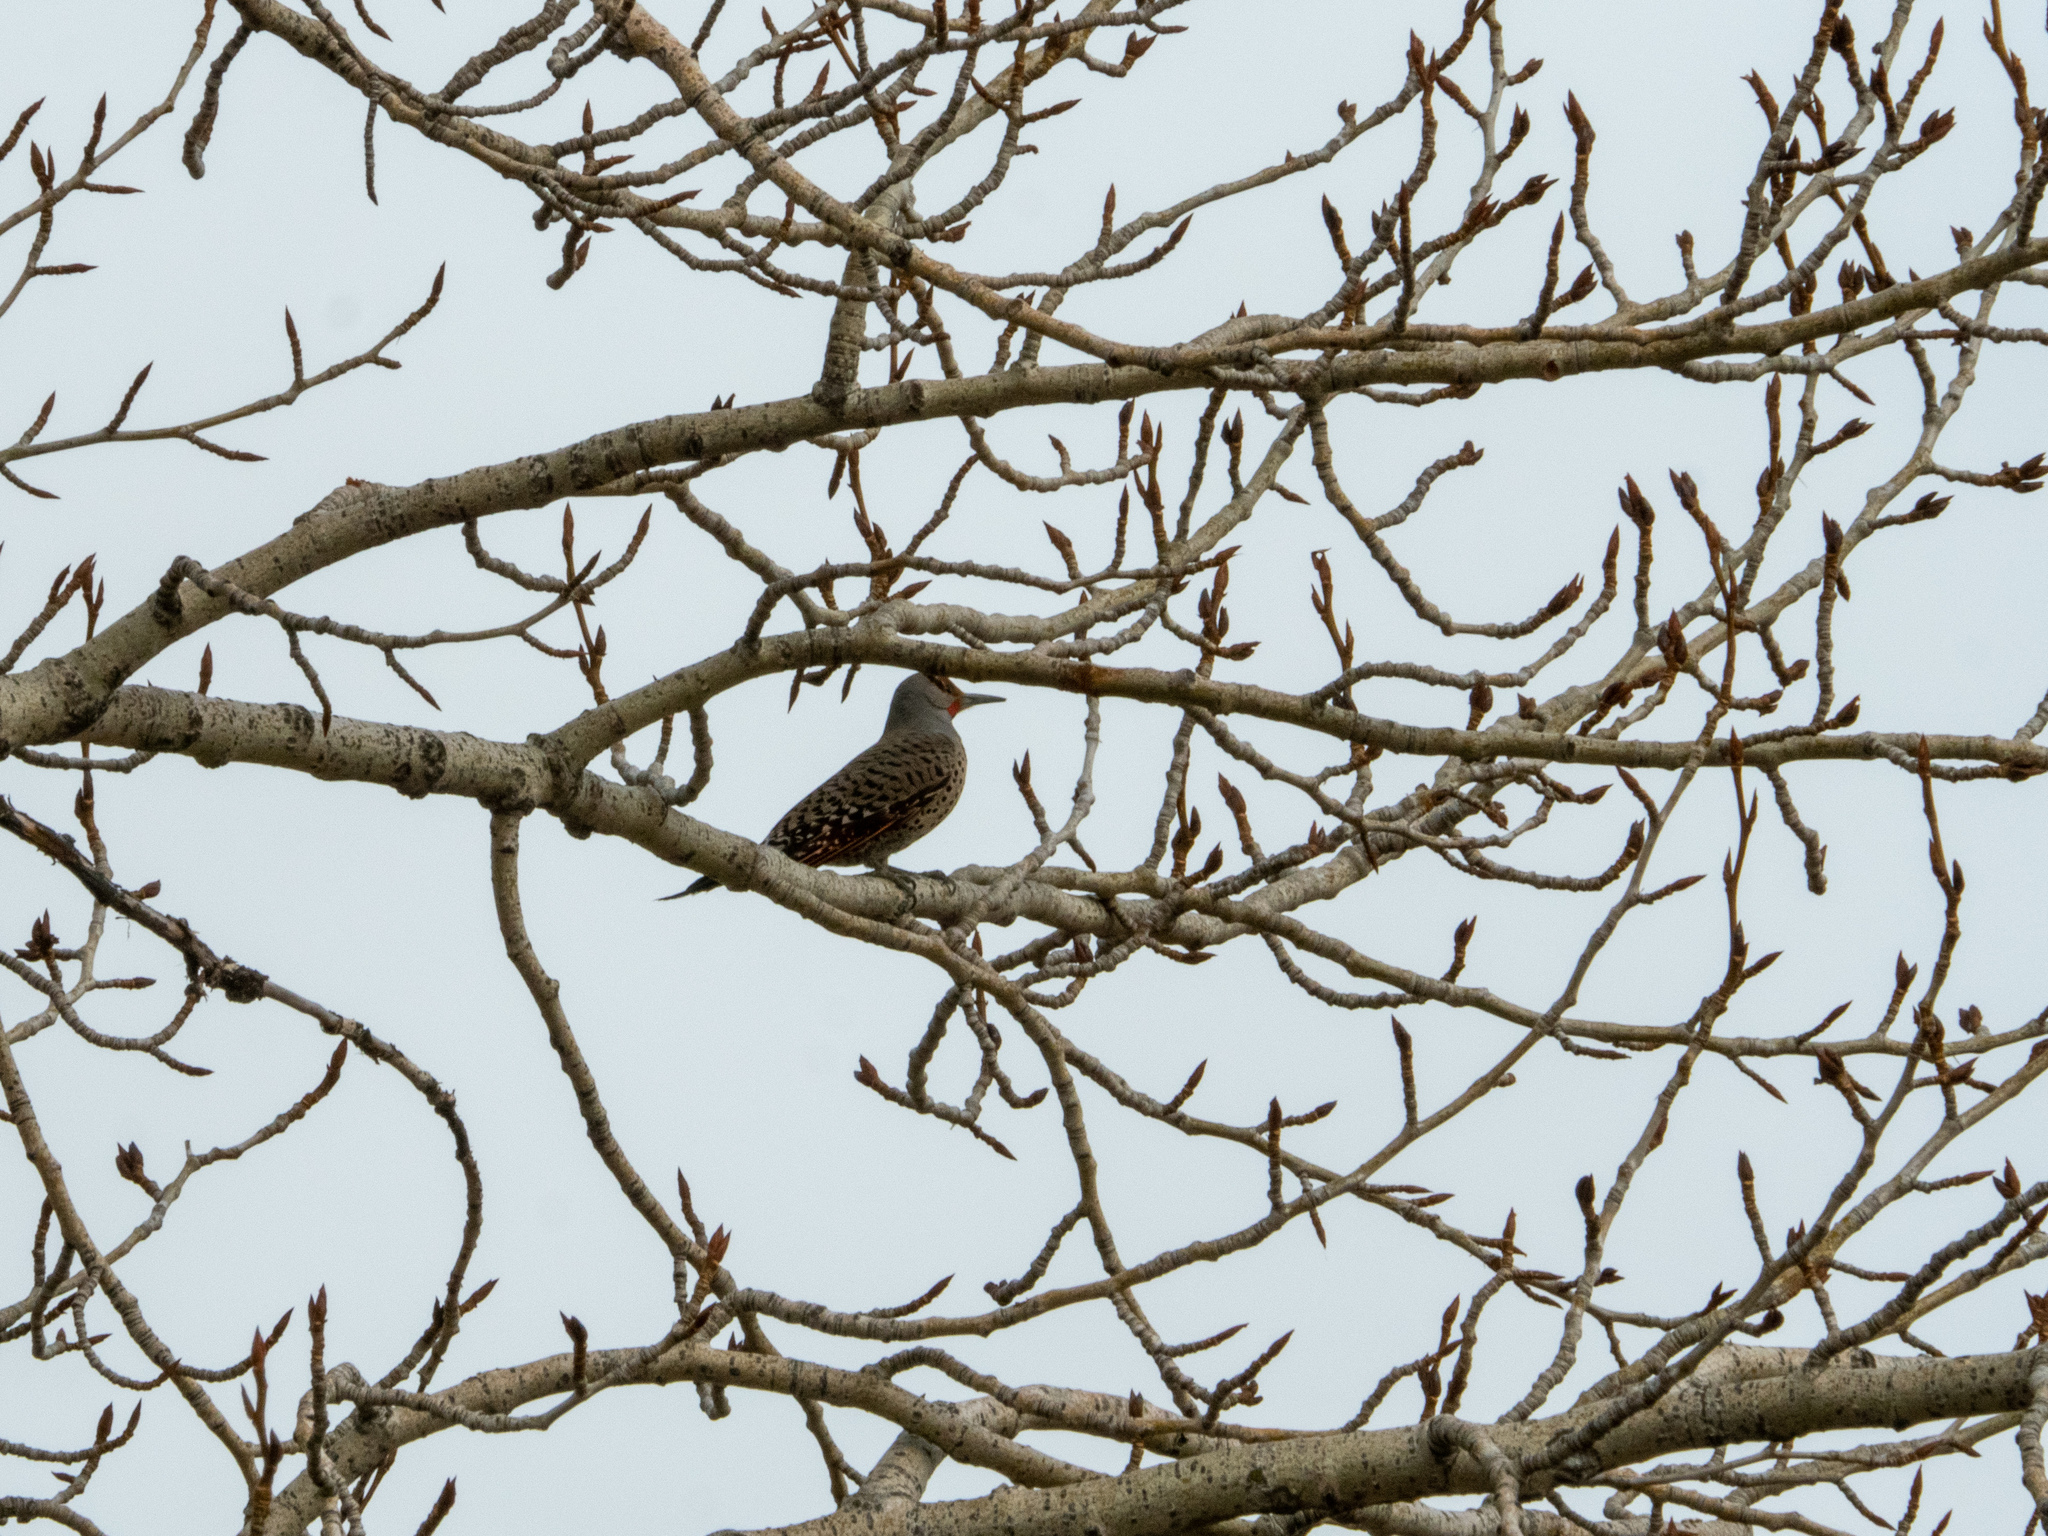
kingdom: Animalia
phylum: Chordata
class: Aves
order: Piciformes
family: Picidae
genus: Colaptes
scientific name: Colaptes auratus
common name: Northern flicker
